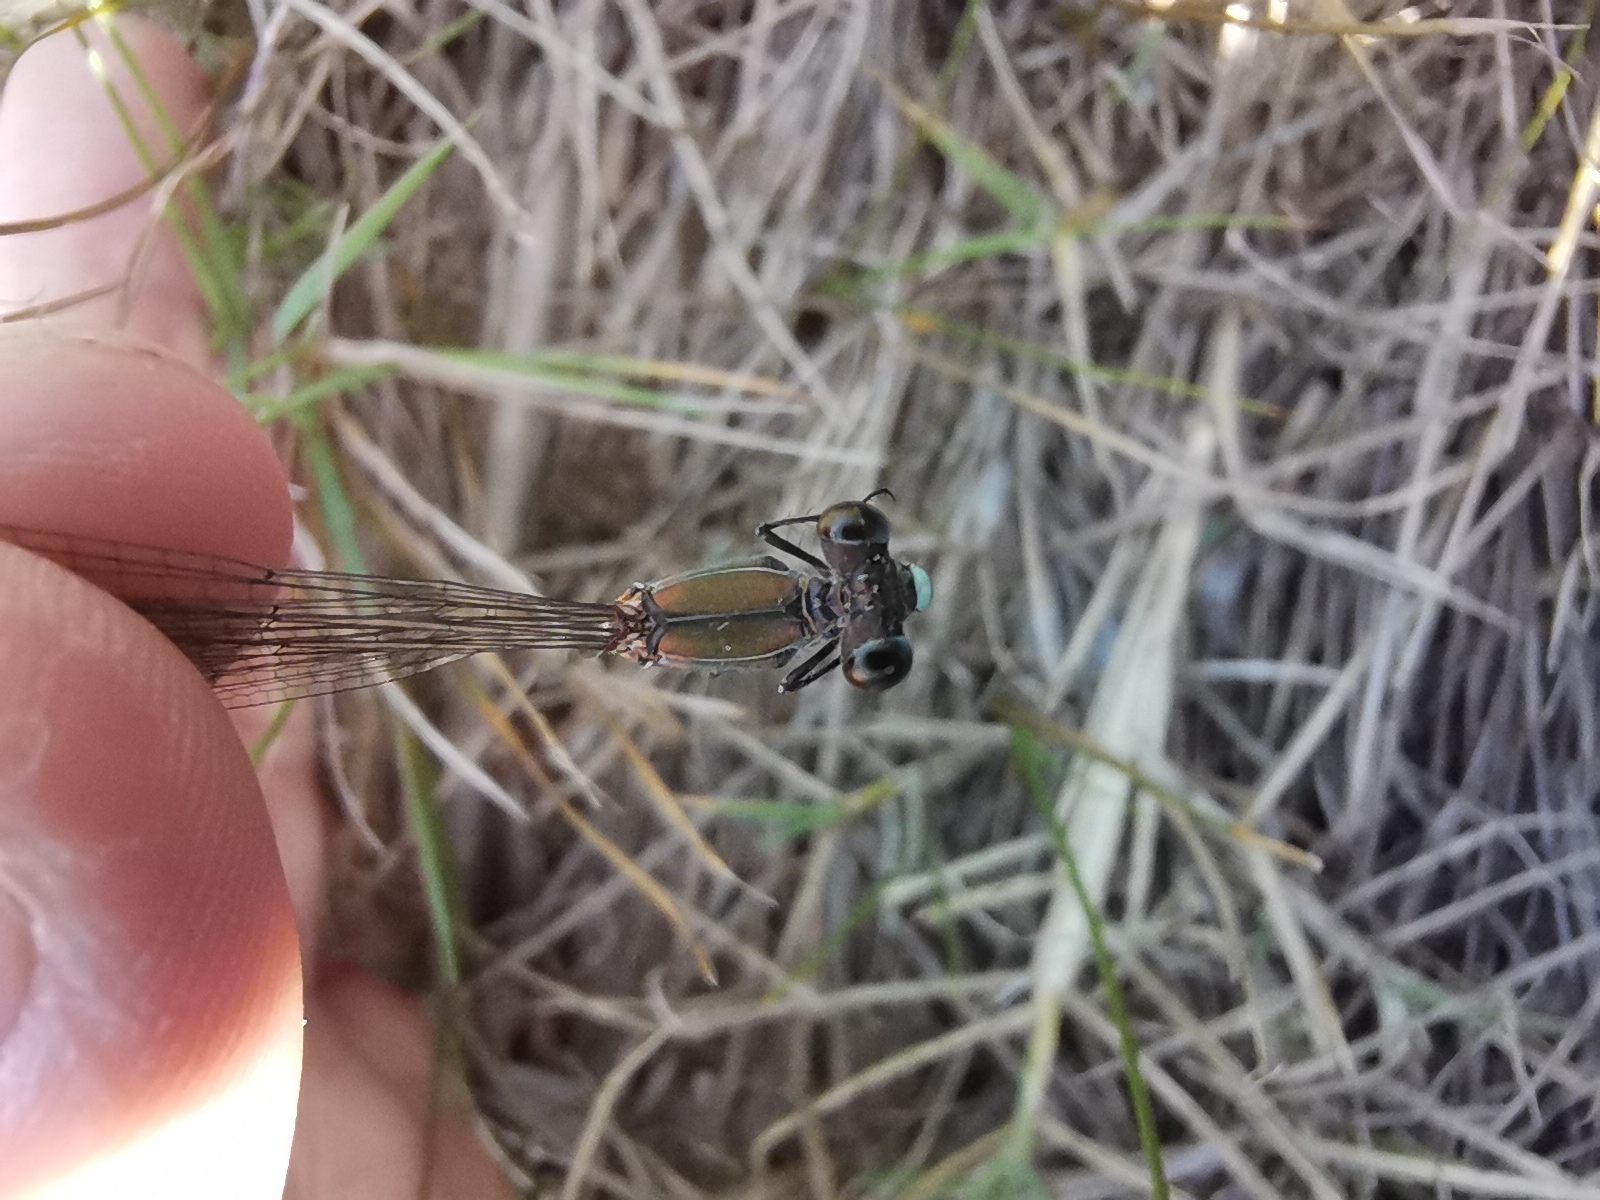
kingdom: Animalia
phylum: Arthropoda
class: Insecta
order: Odonata
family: Lestidae
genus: Chalcolestes
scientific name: Chalcolestes viridis
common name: Green emerald damselfly
